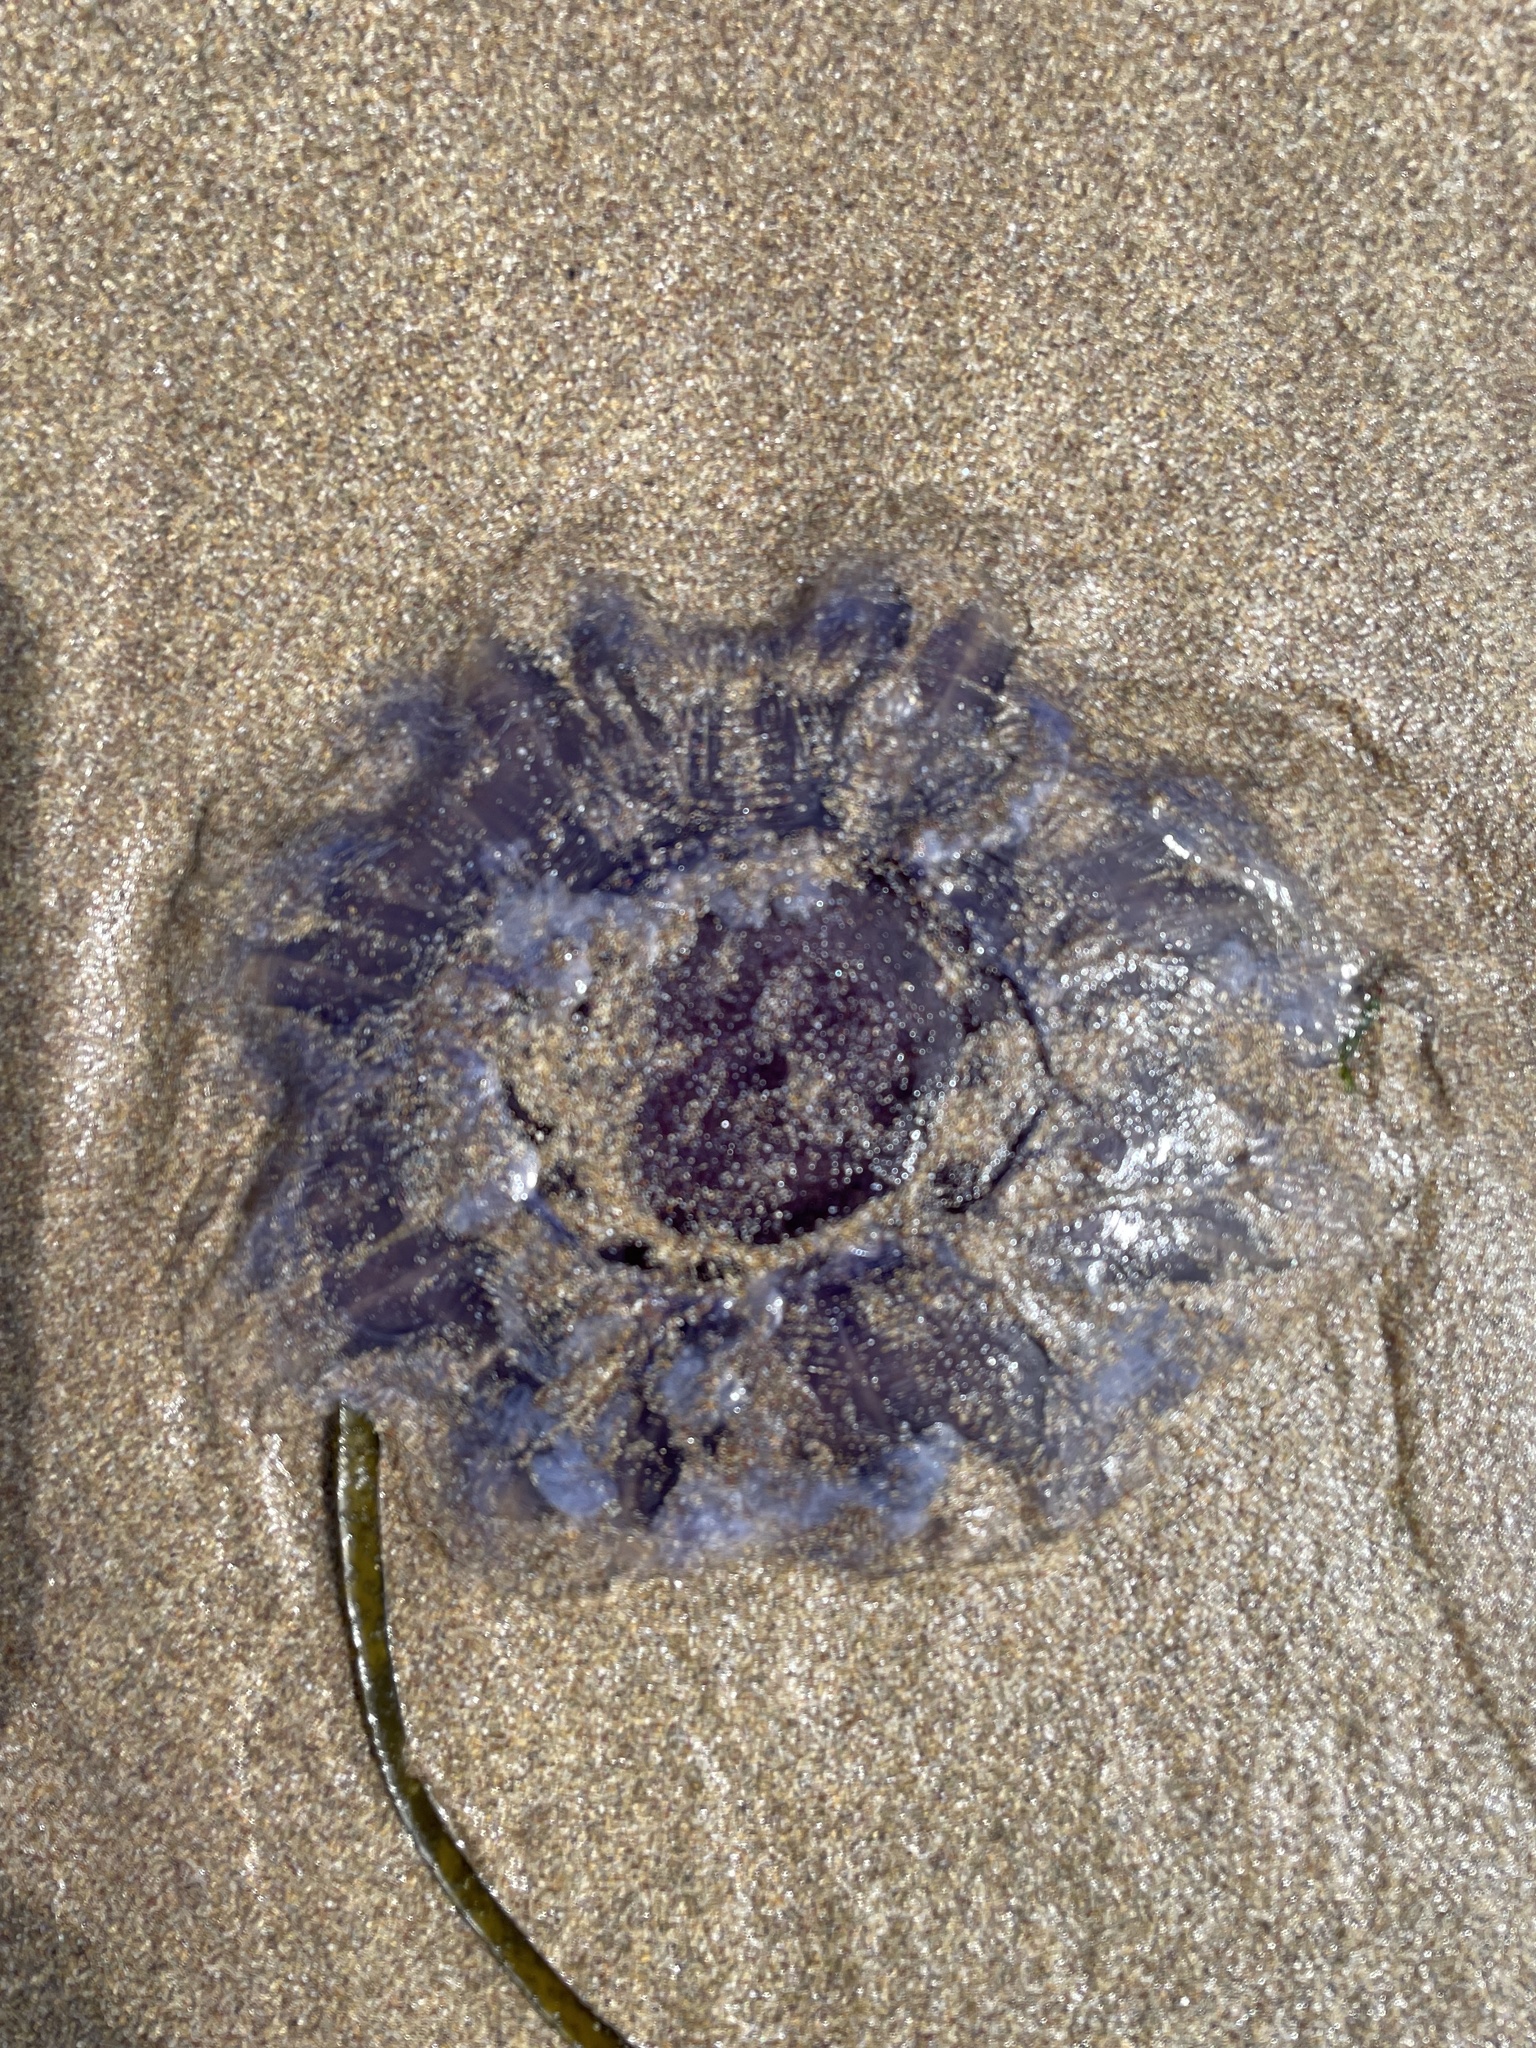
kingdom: Animalia
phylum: Cnidaria
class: Scyphozoa
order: Semaeostomeae
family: Cyaneidae
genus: Cyanea
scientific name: Cyanea lamarckii
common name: Blue jellyfish
